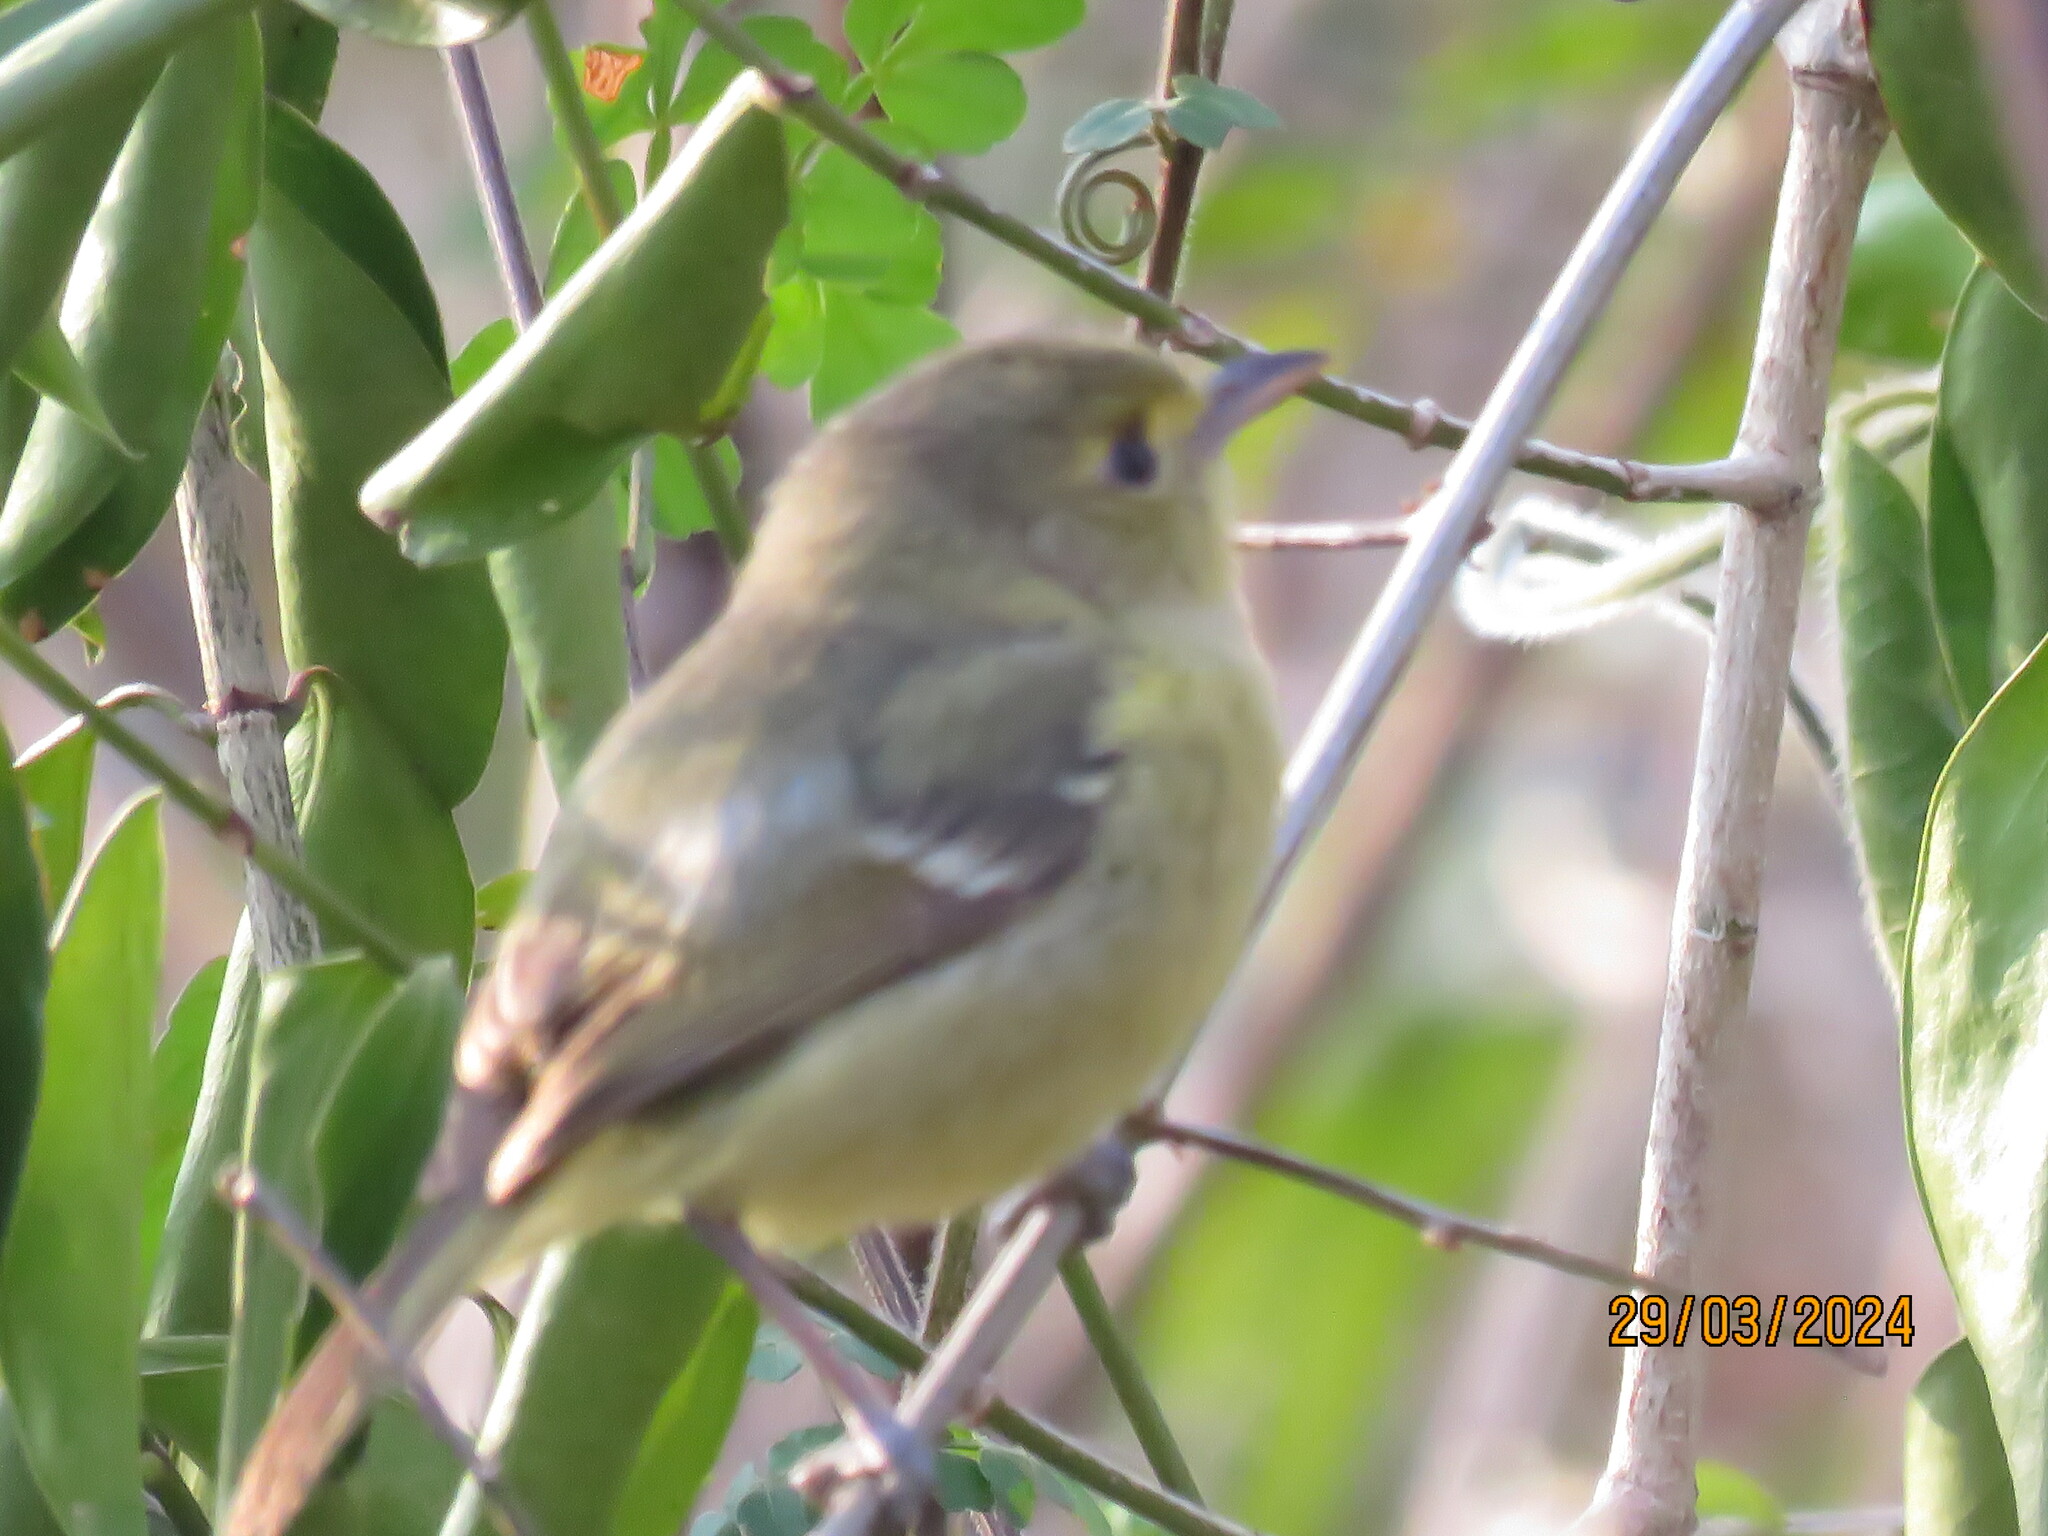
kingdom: Animalia
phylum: Chordata
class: Aves
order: Passeriformes
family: Vireonidae
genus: Vireo
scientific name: Vireo pallens
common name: Mangrove vireo
